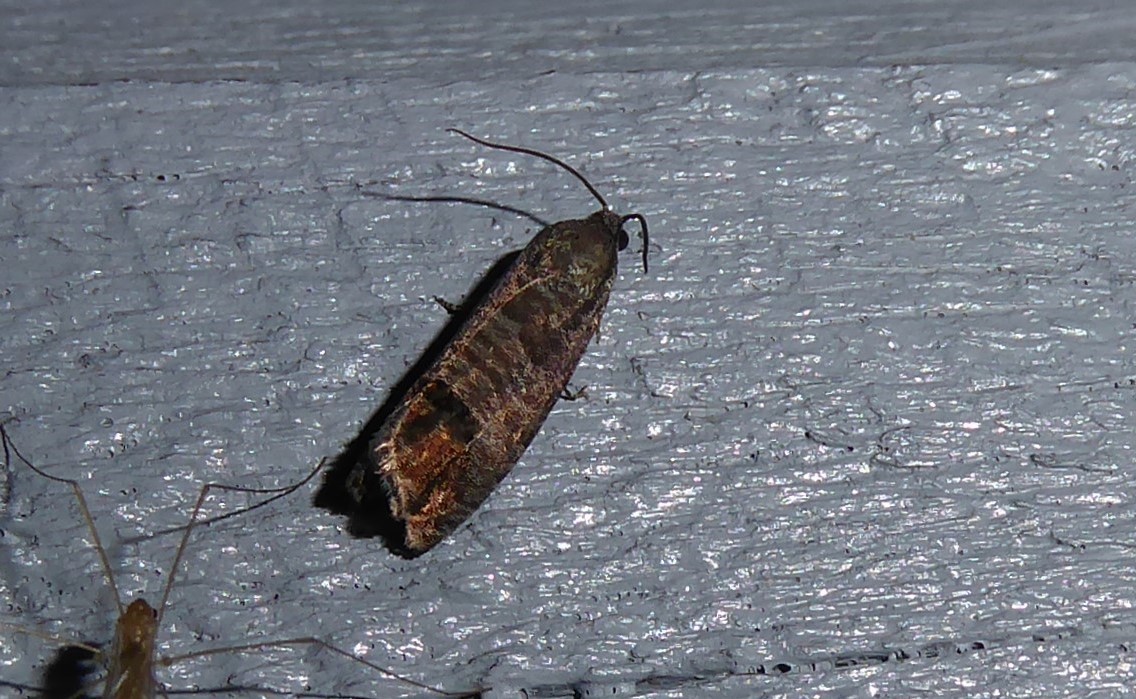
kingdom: Animalia
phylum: Arthropoda
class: Insecta
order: Lepidoptera
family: Tortricidae
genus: Cydia
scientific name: Cydia pomonella
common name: Codling moth
